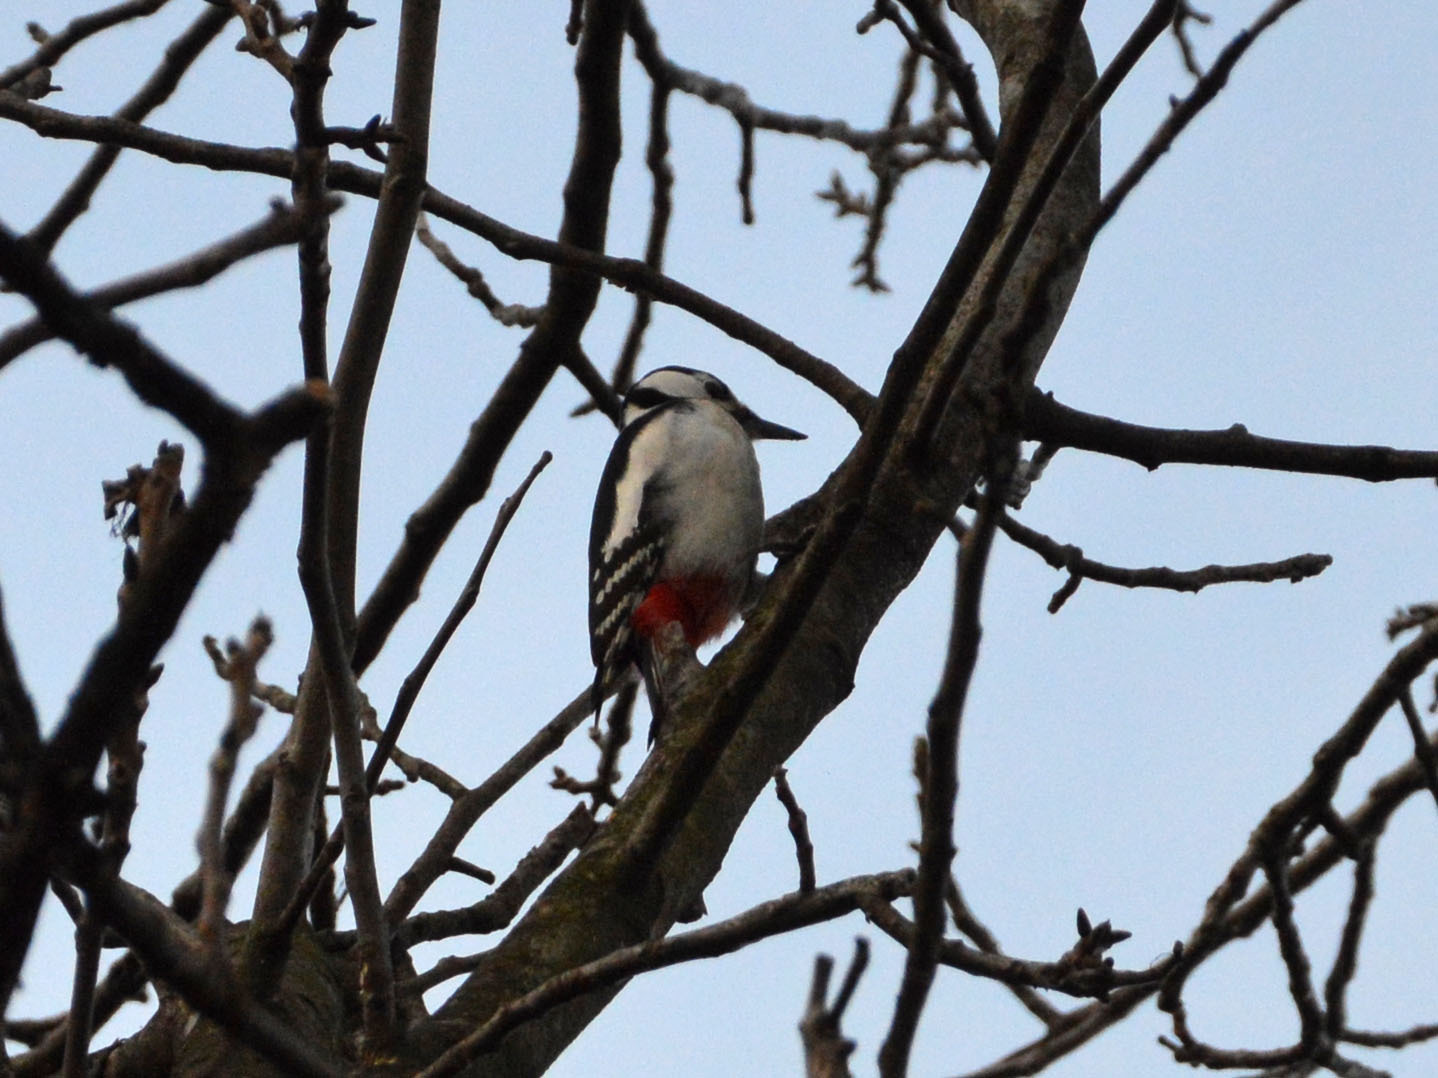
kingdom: Animalia
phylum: Chordata
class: Aves
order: Piciformes
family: Picidae
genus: Dendrocopos
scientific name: Dendrocopos major
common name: Great spotted woodpecker
